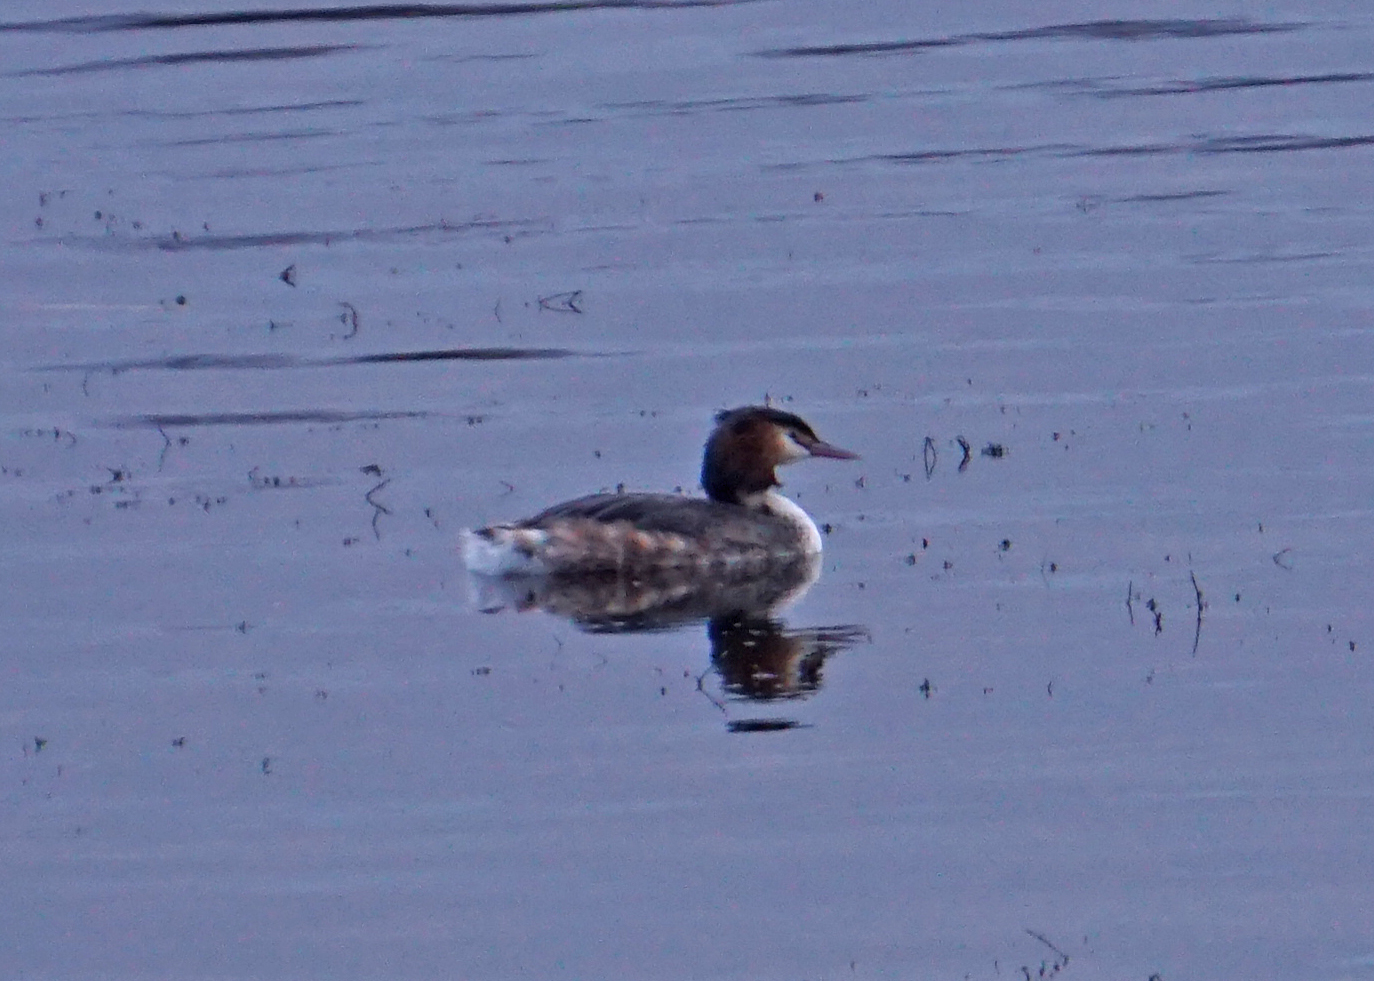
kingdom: Animalia
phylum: Chordata
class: Aves
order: Podicipediformes
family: Podicipedidae
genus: Podiceps
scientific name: Podiceps cristatus
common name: Great crested grebe
